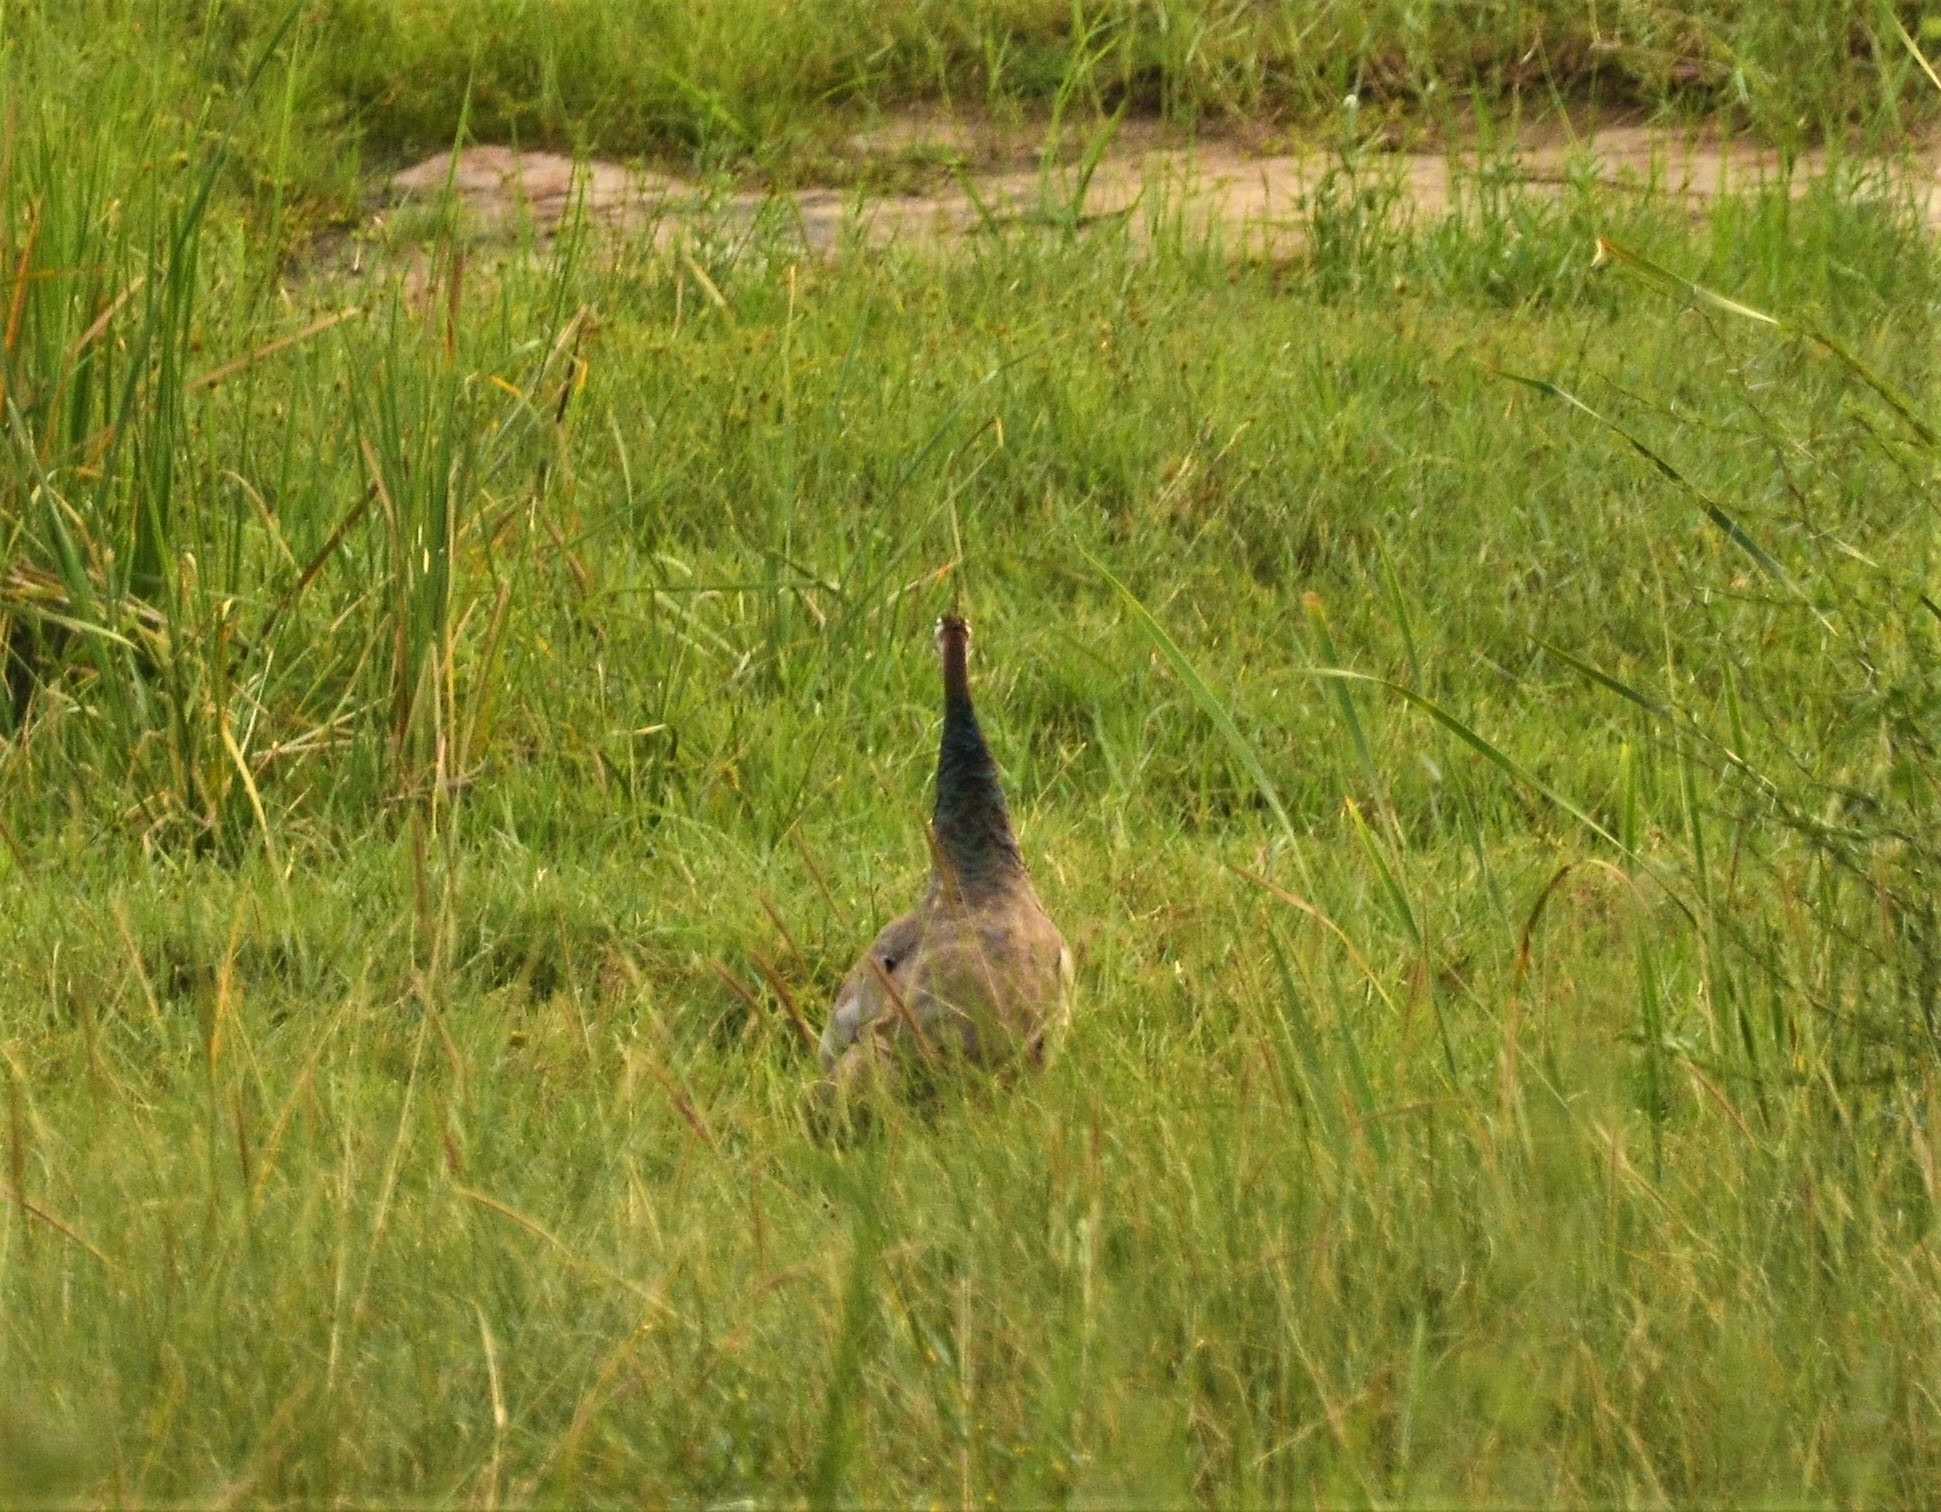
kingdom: Animalia
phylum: Chordata
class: Aves
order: Galliformes
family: Phasianidae
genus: Pavo
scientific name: Pavo cristatus
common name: Indian peafowl
